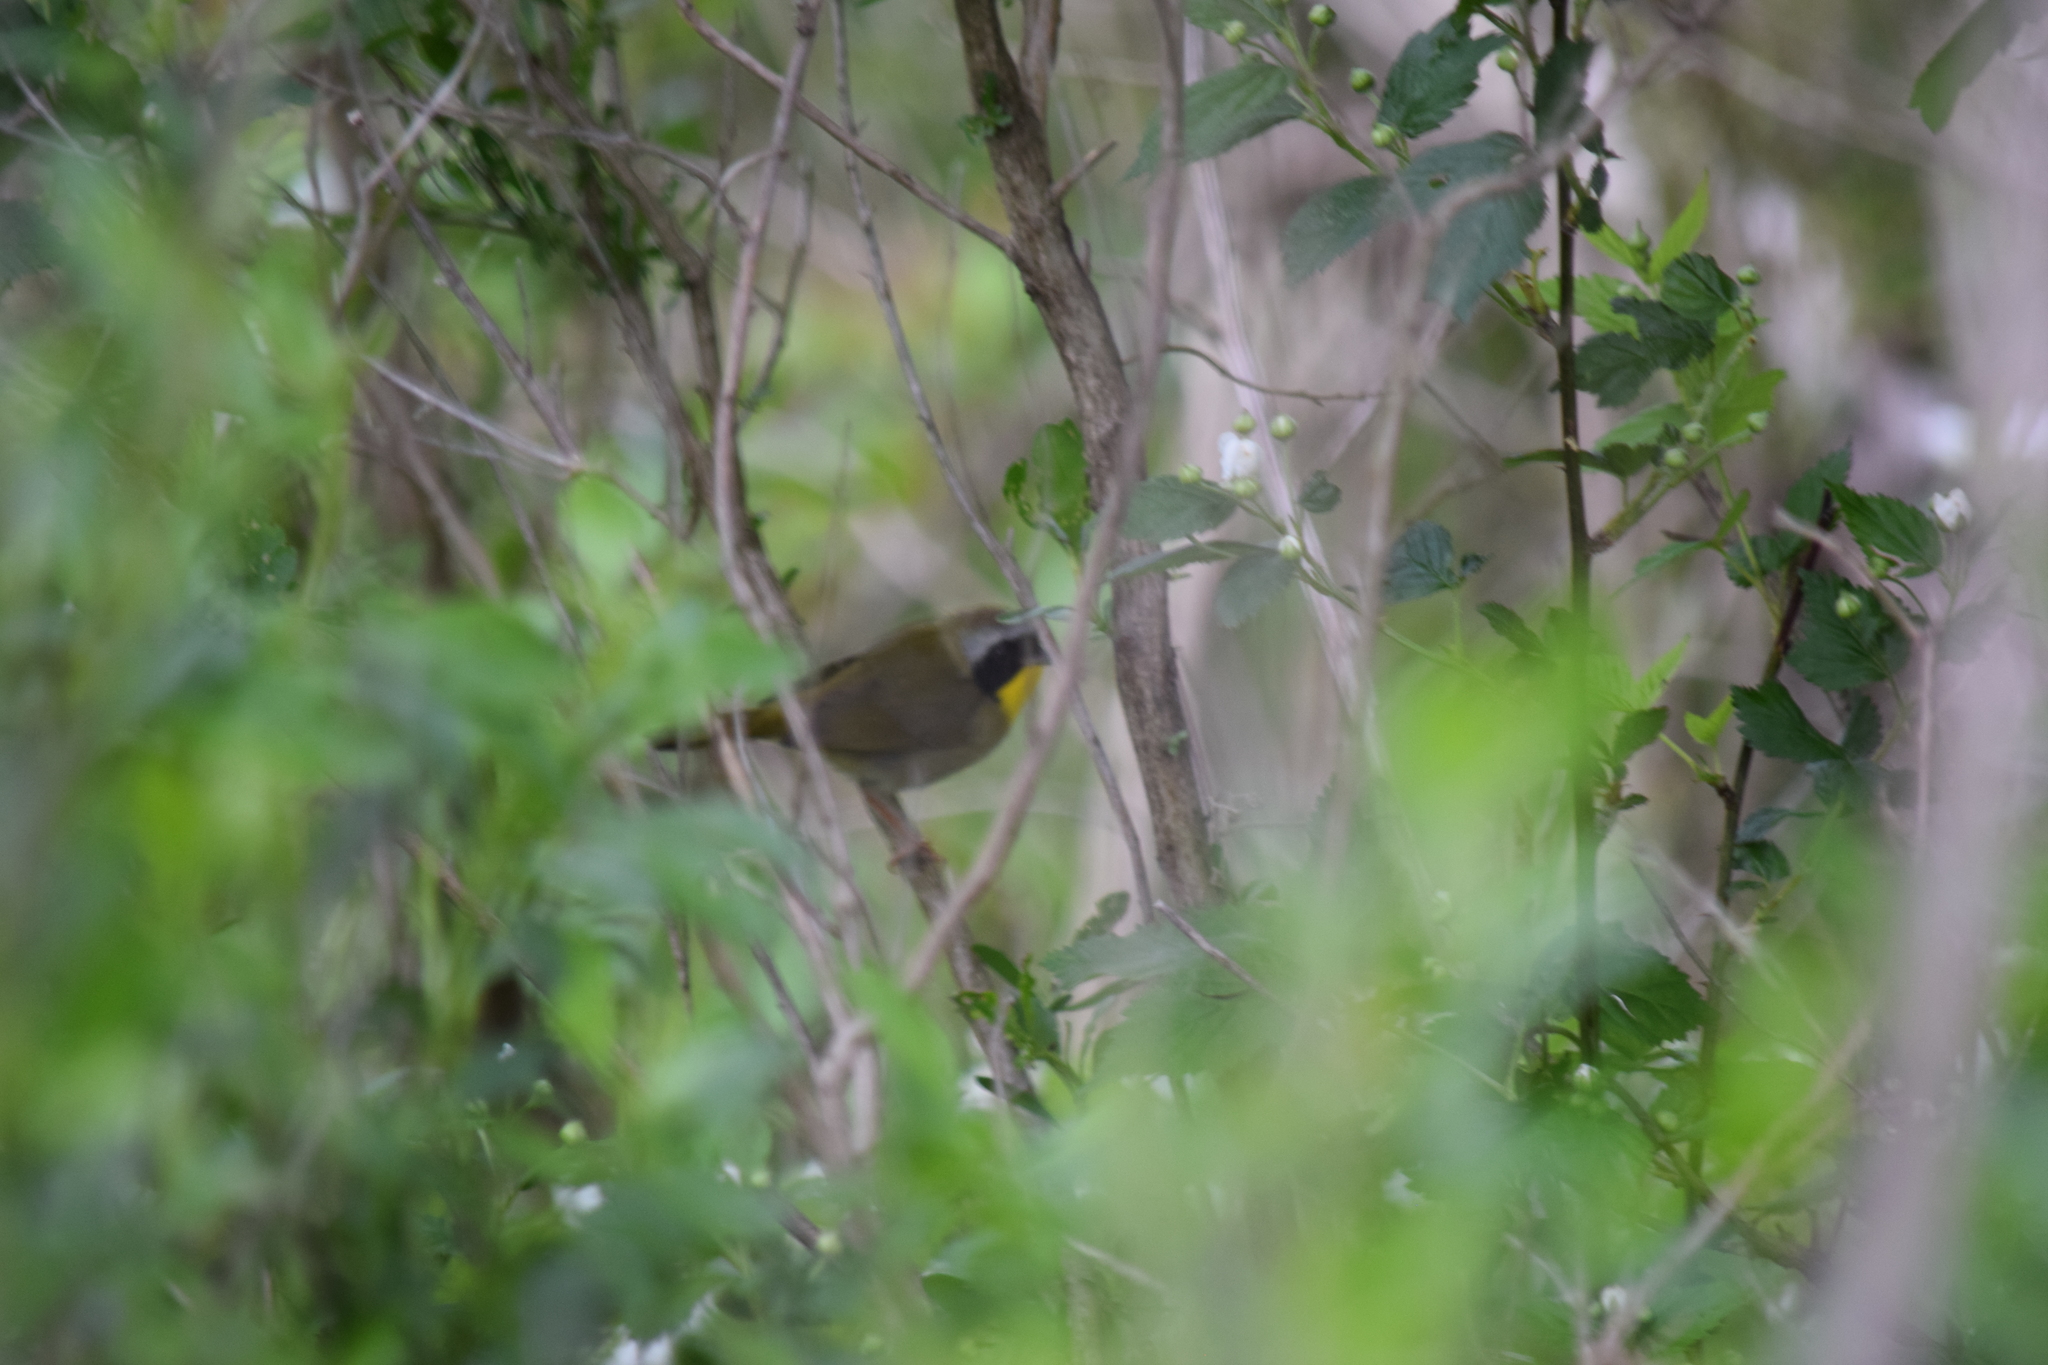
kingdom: Animalia
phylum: Chordata
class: Aves
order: Passeriformes
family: Parulidae
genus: Geothlypis
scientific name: Geothlypis trichas
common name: Common yellowthroat
